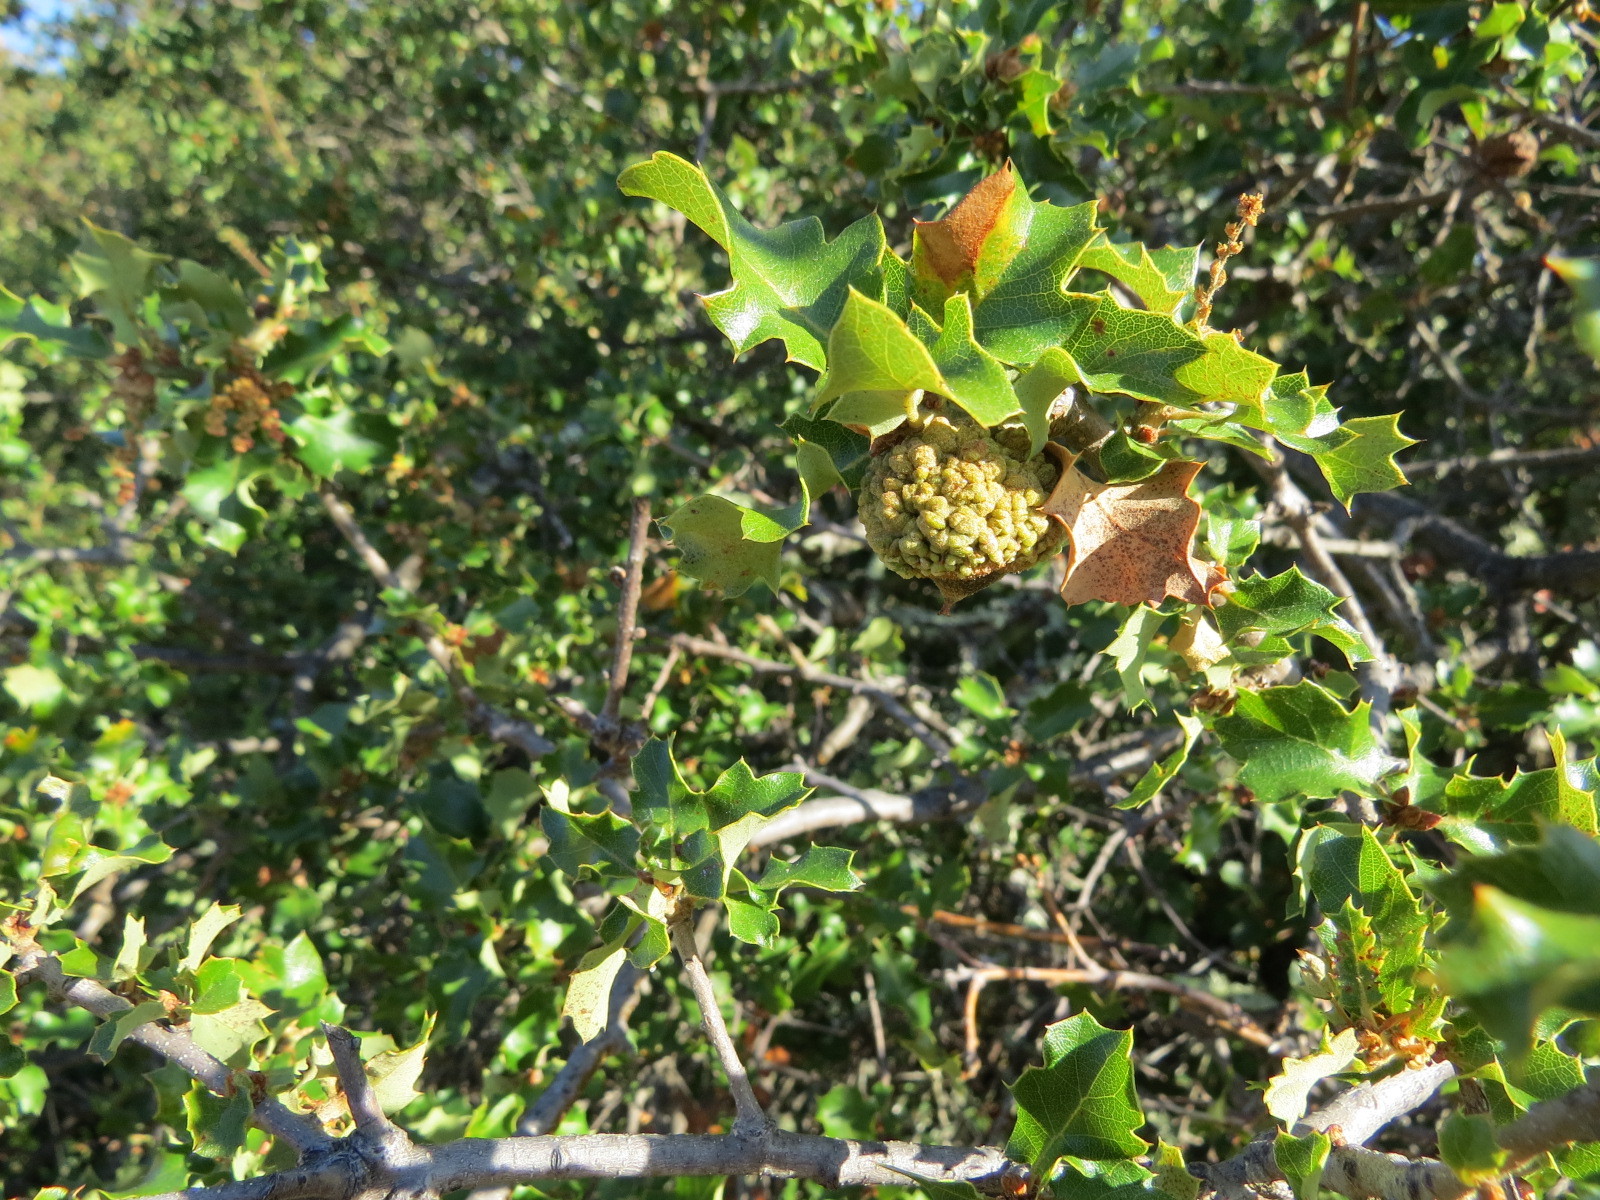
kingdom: Plantae
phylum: Tracheophyta
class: Magnoliopsida
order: Fagales
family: Fagaceae
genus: Quercus
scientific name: Quercus berberidifolia
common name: California scrub oak
